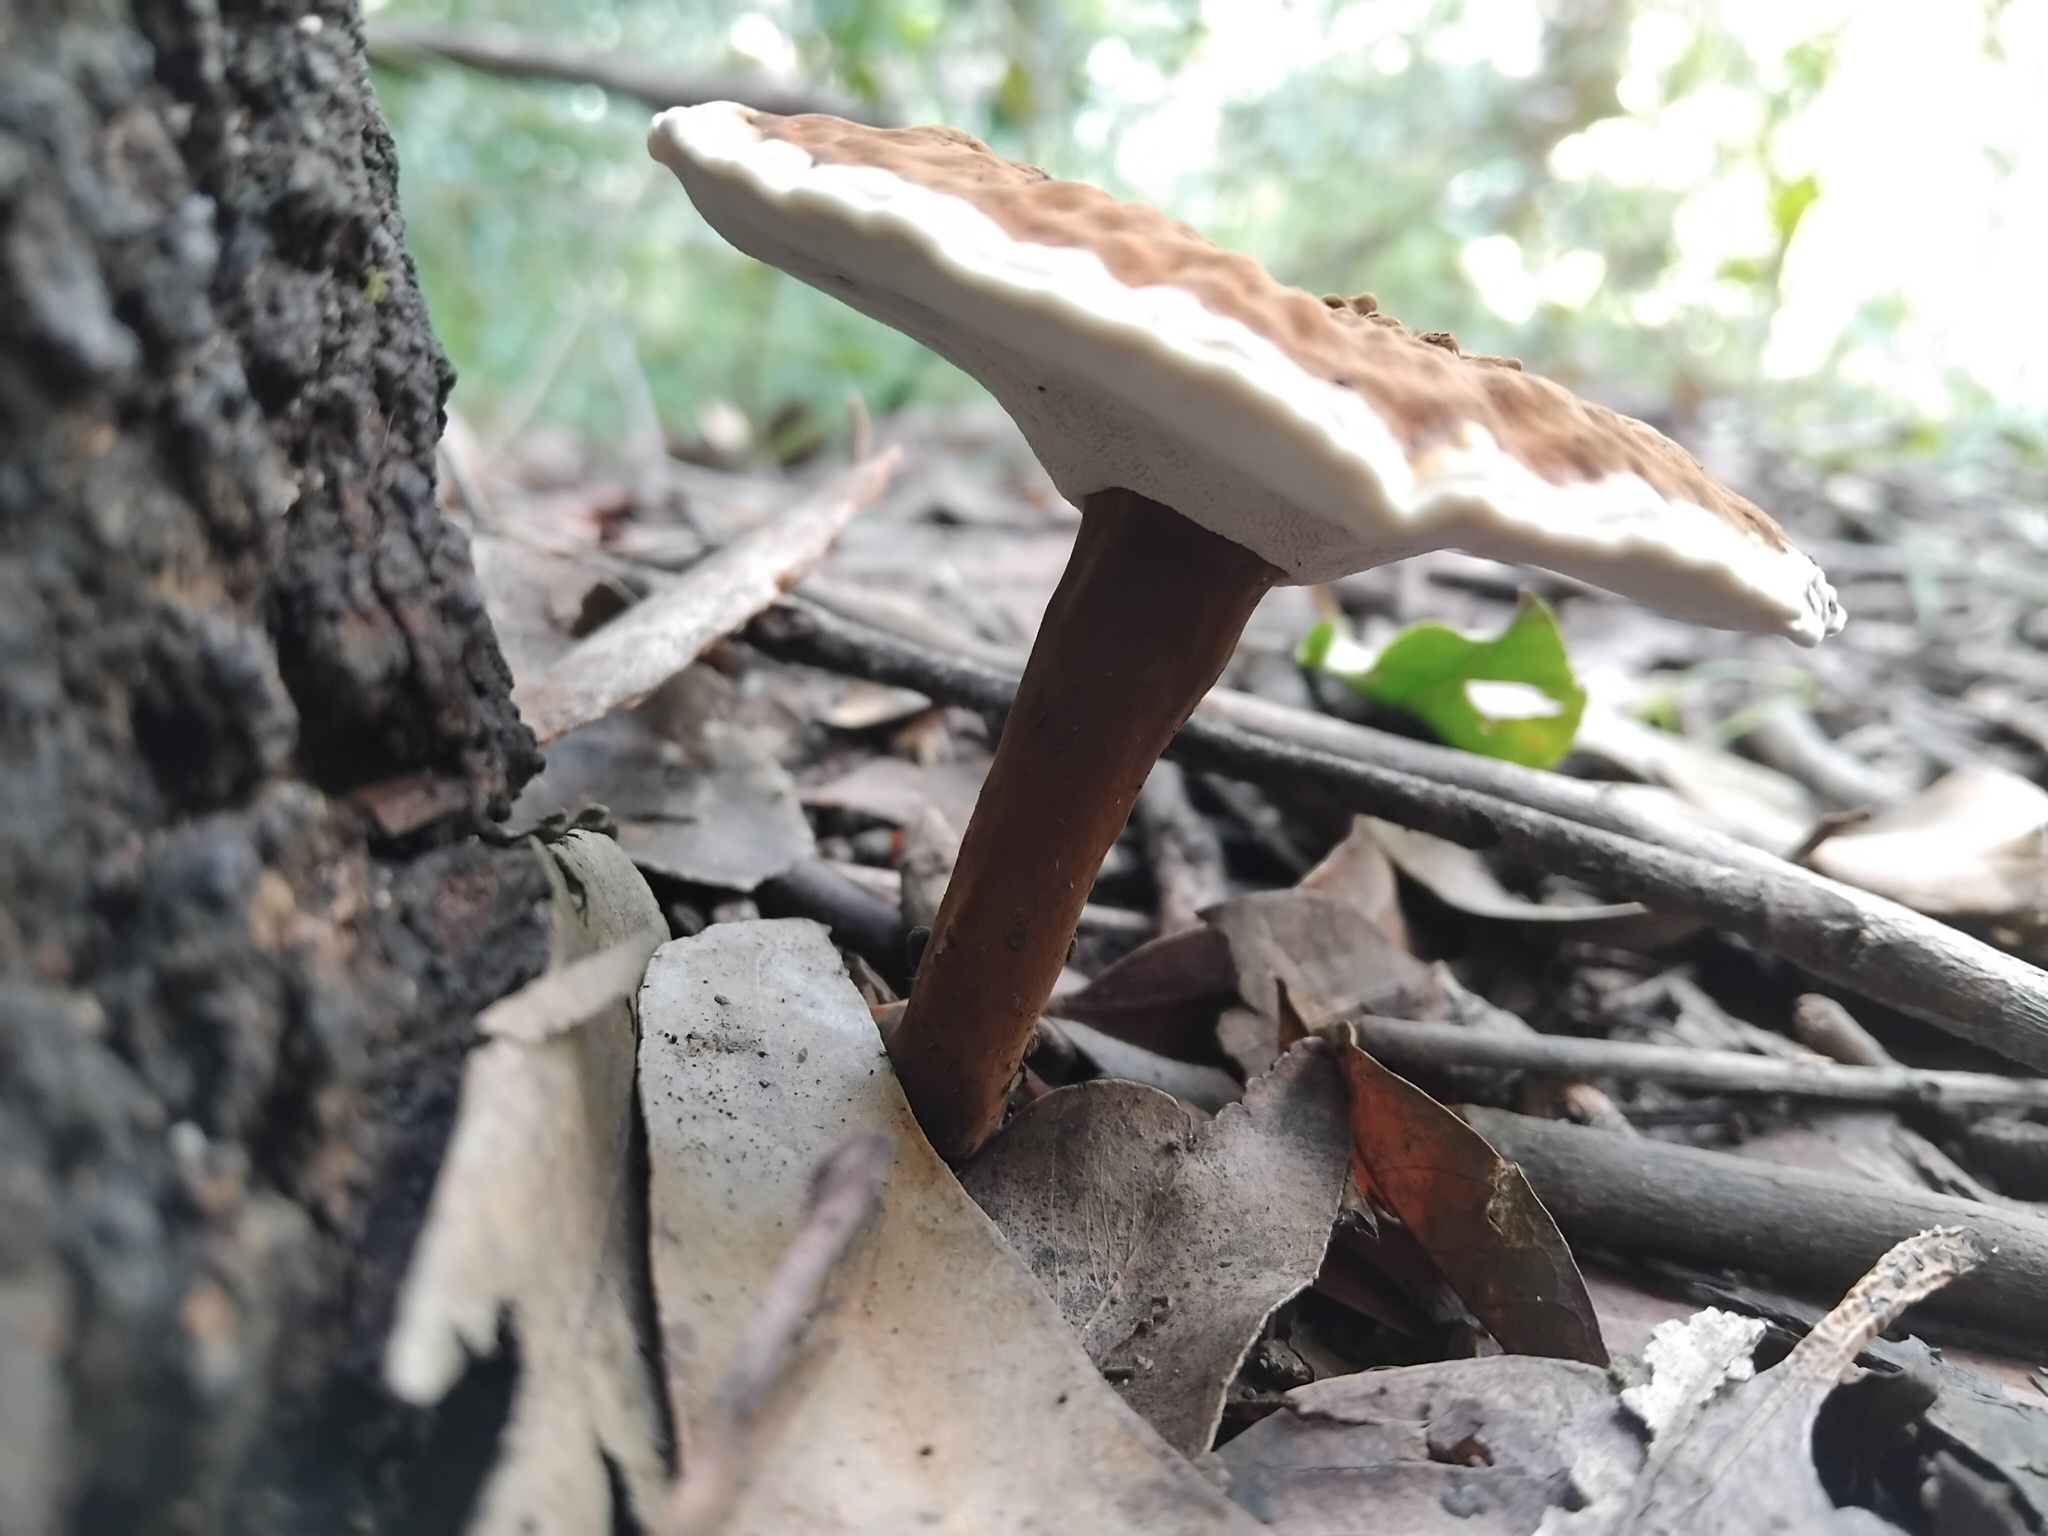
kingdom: Fungi
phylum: Basidiomycota
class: Agaricomycetes
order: Polyporales
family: Ganodermataceae
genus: Sanguinoderma
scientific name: Sanguinoderma rude
